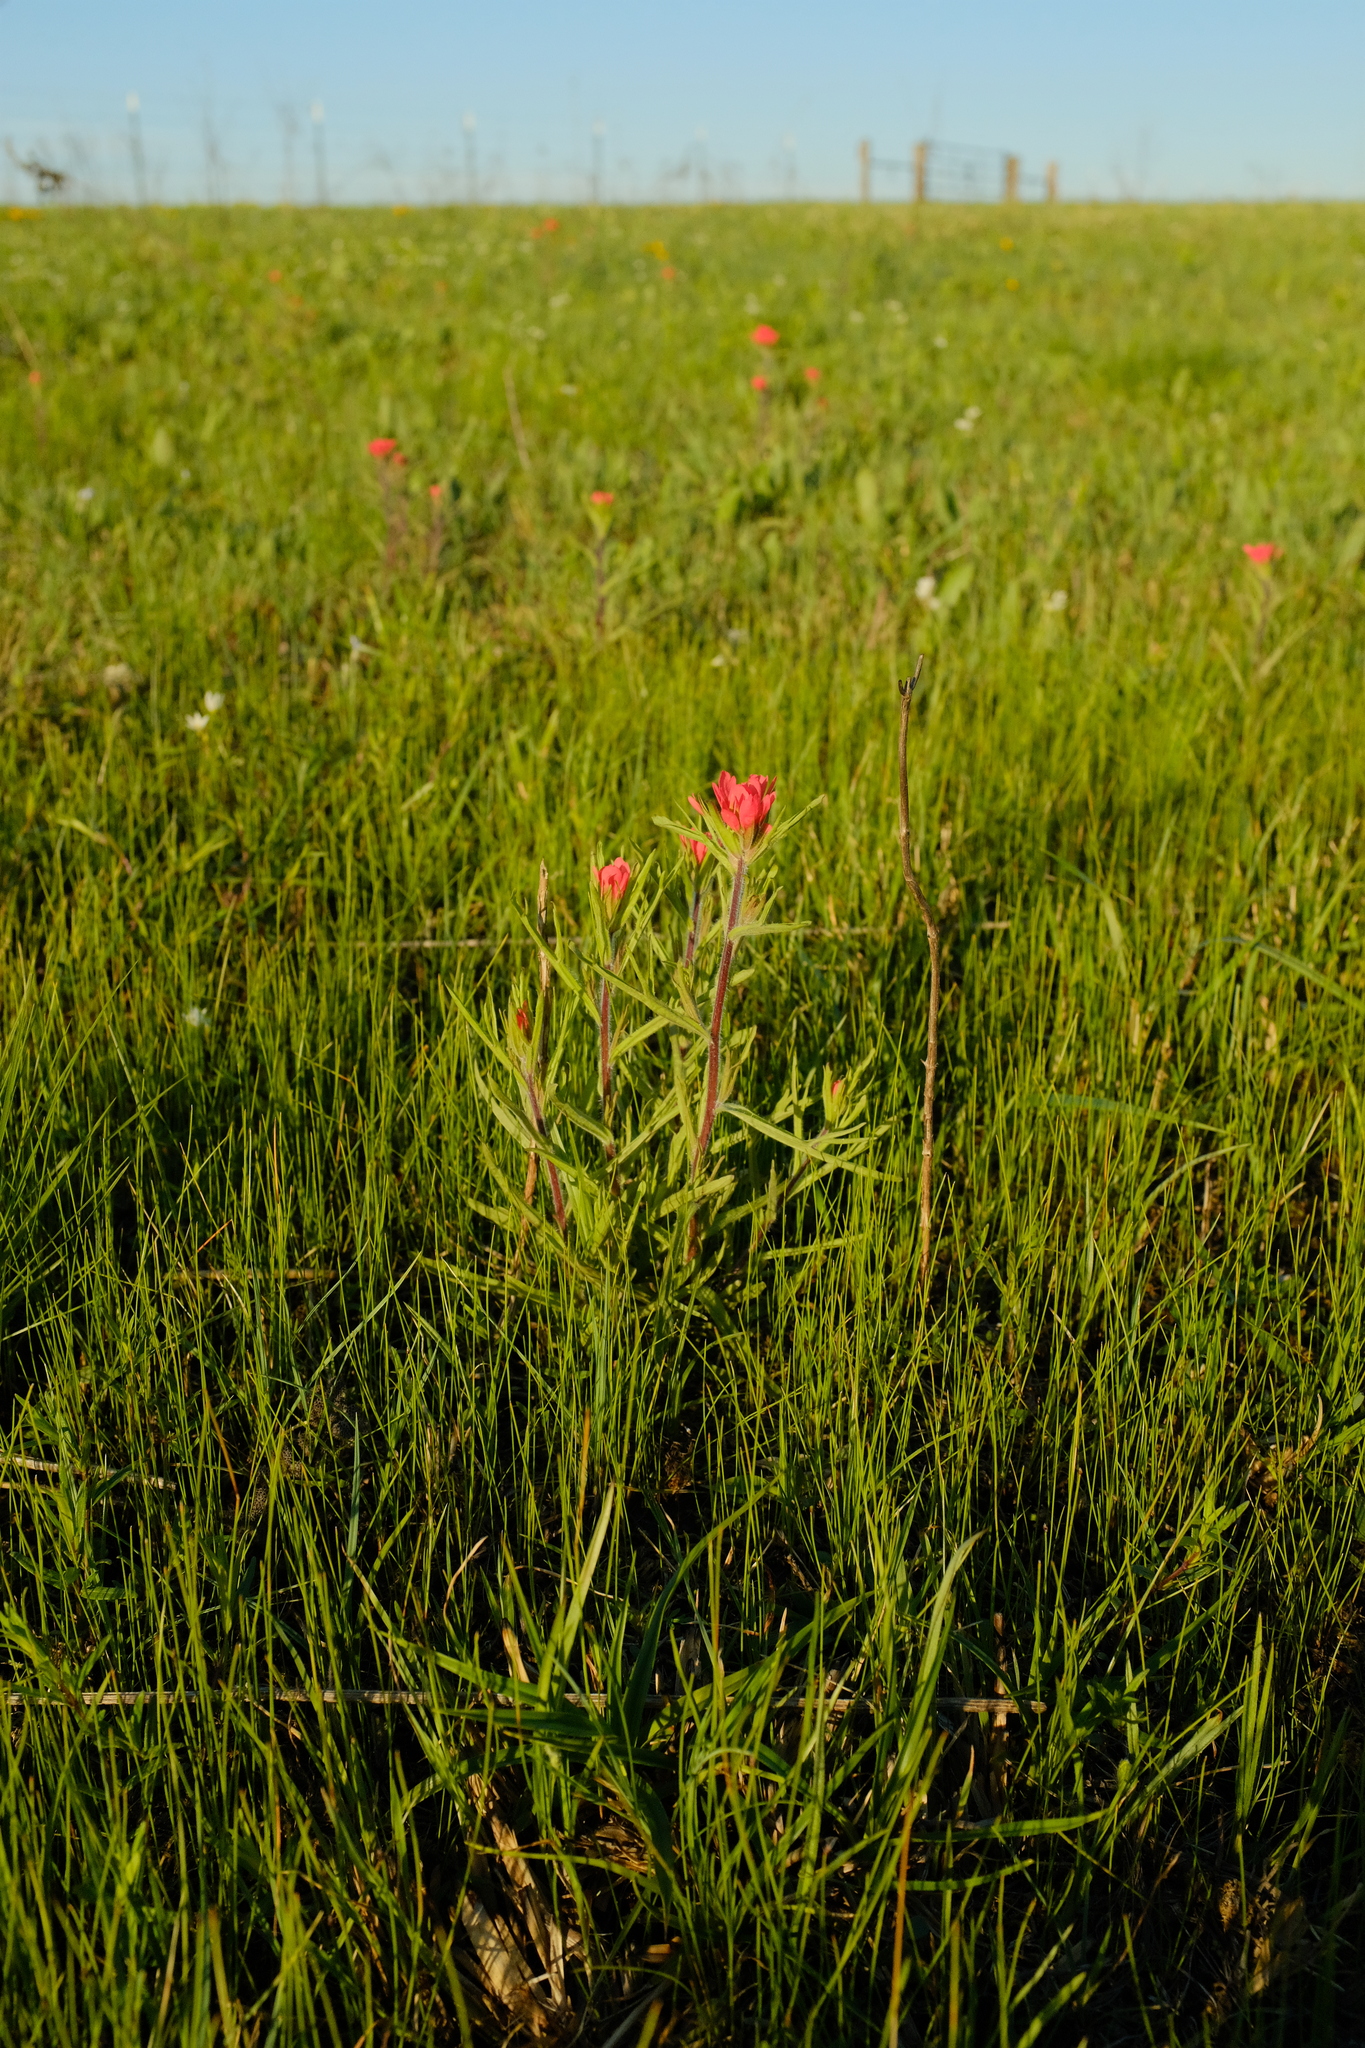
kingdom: Plantae
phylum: Tracheophyta
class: Magnoliopsida
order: Lamiales
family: Orobanchaceae
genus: Castilleja
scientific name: Castilleja coccinea
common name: Scarlet paintbrush
